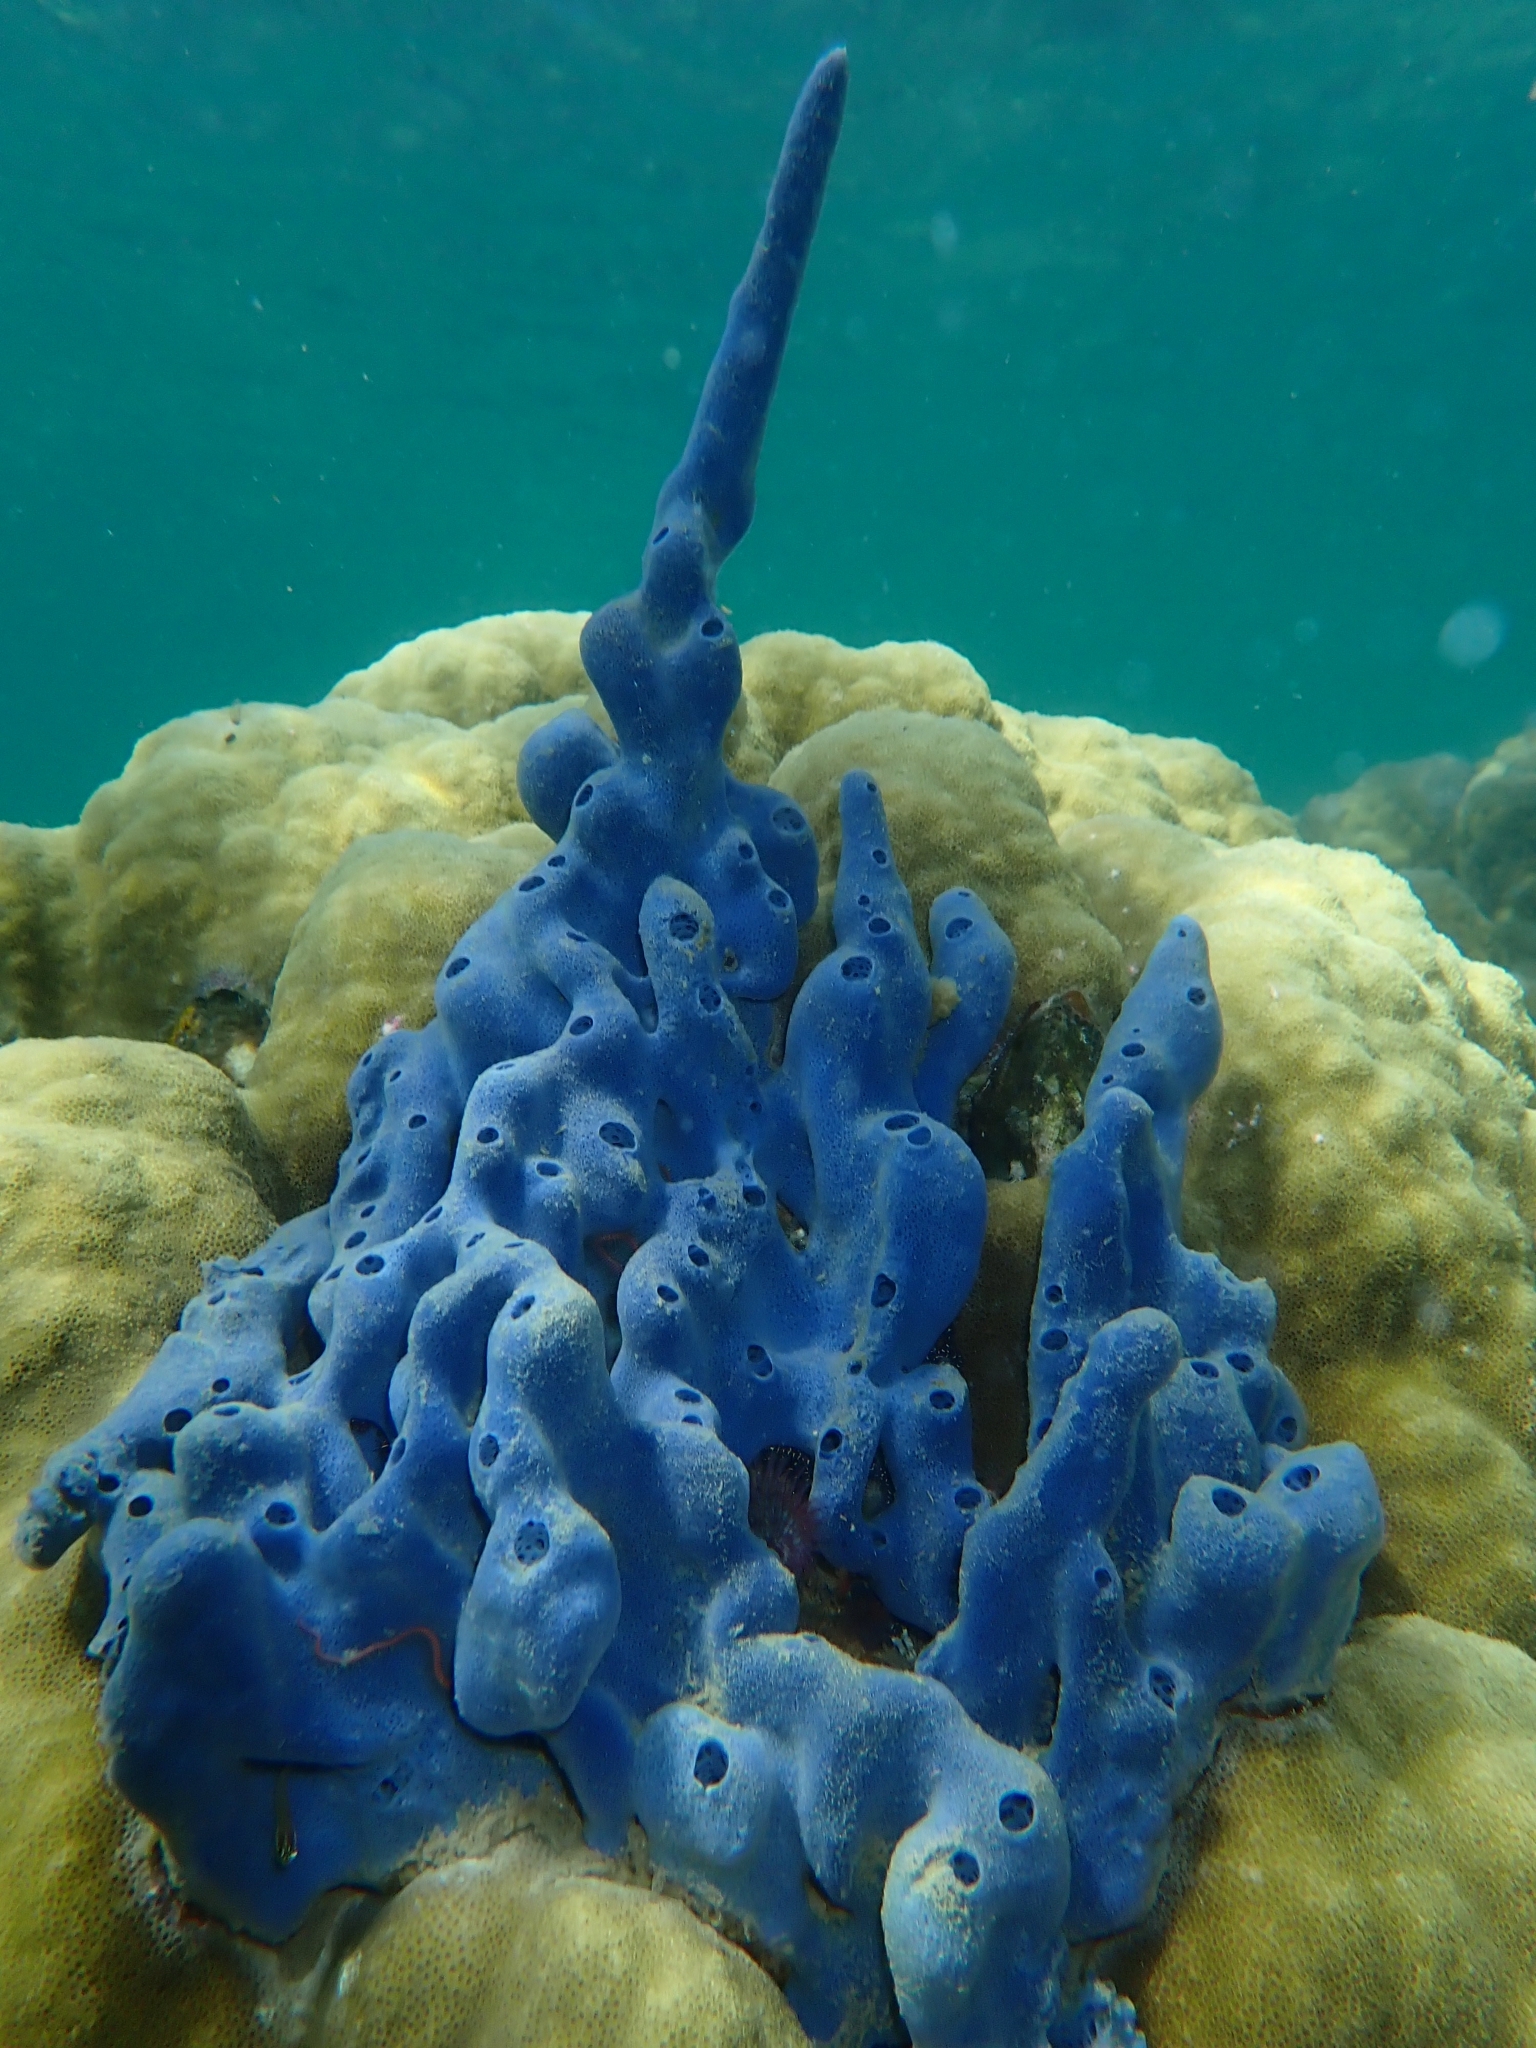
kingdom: Animalia
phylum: Porifera
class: Demospongiae
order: Haplosclerida
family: Niphatidae
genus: Amphimedon
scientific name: Amphimedon queenslandica
